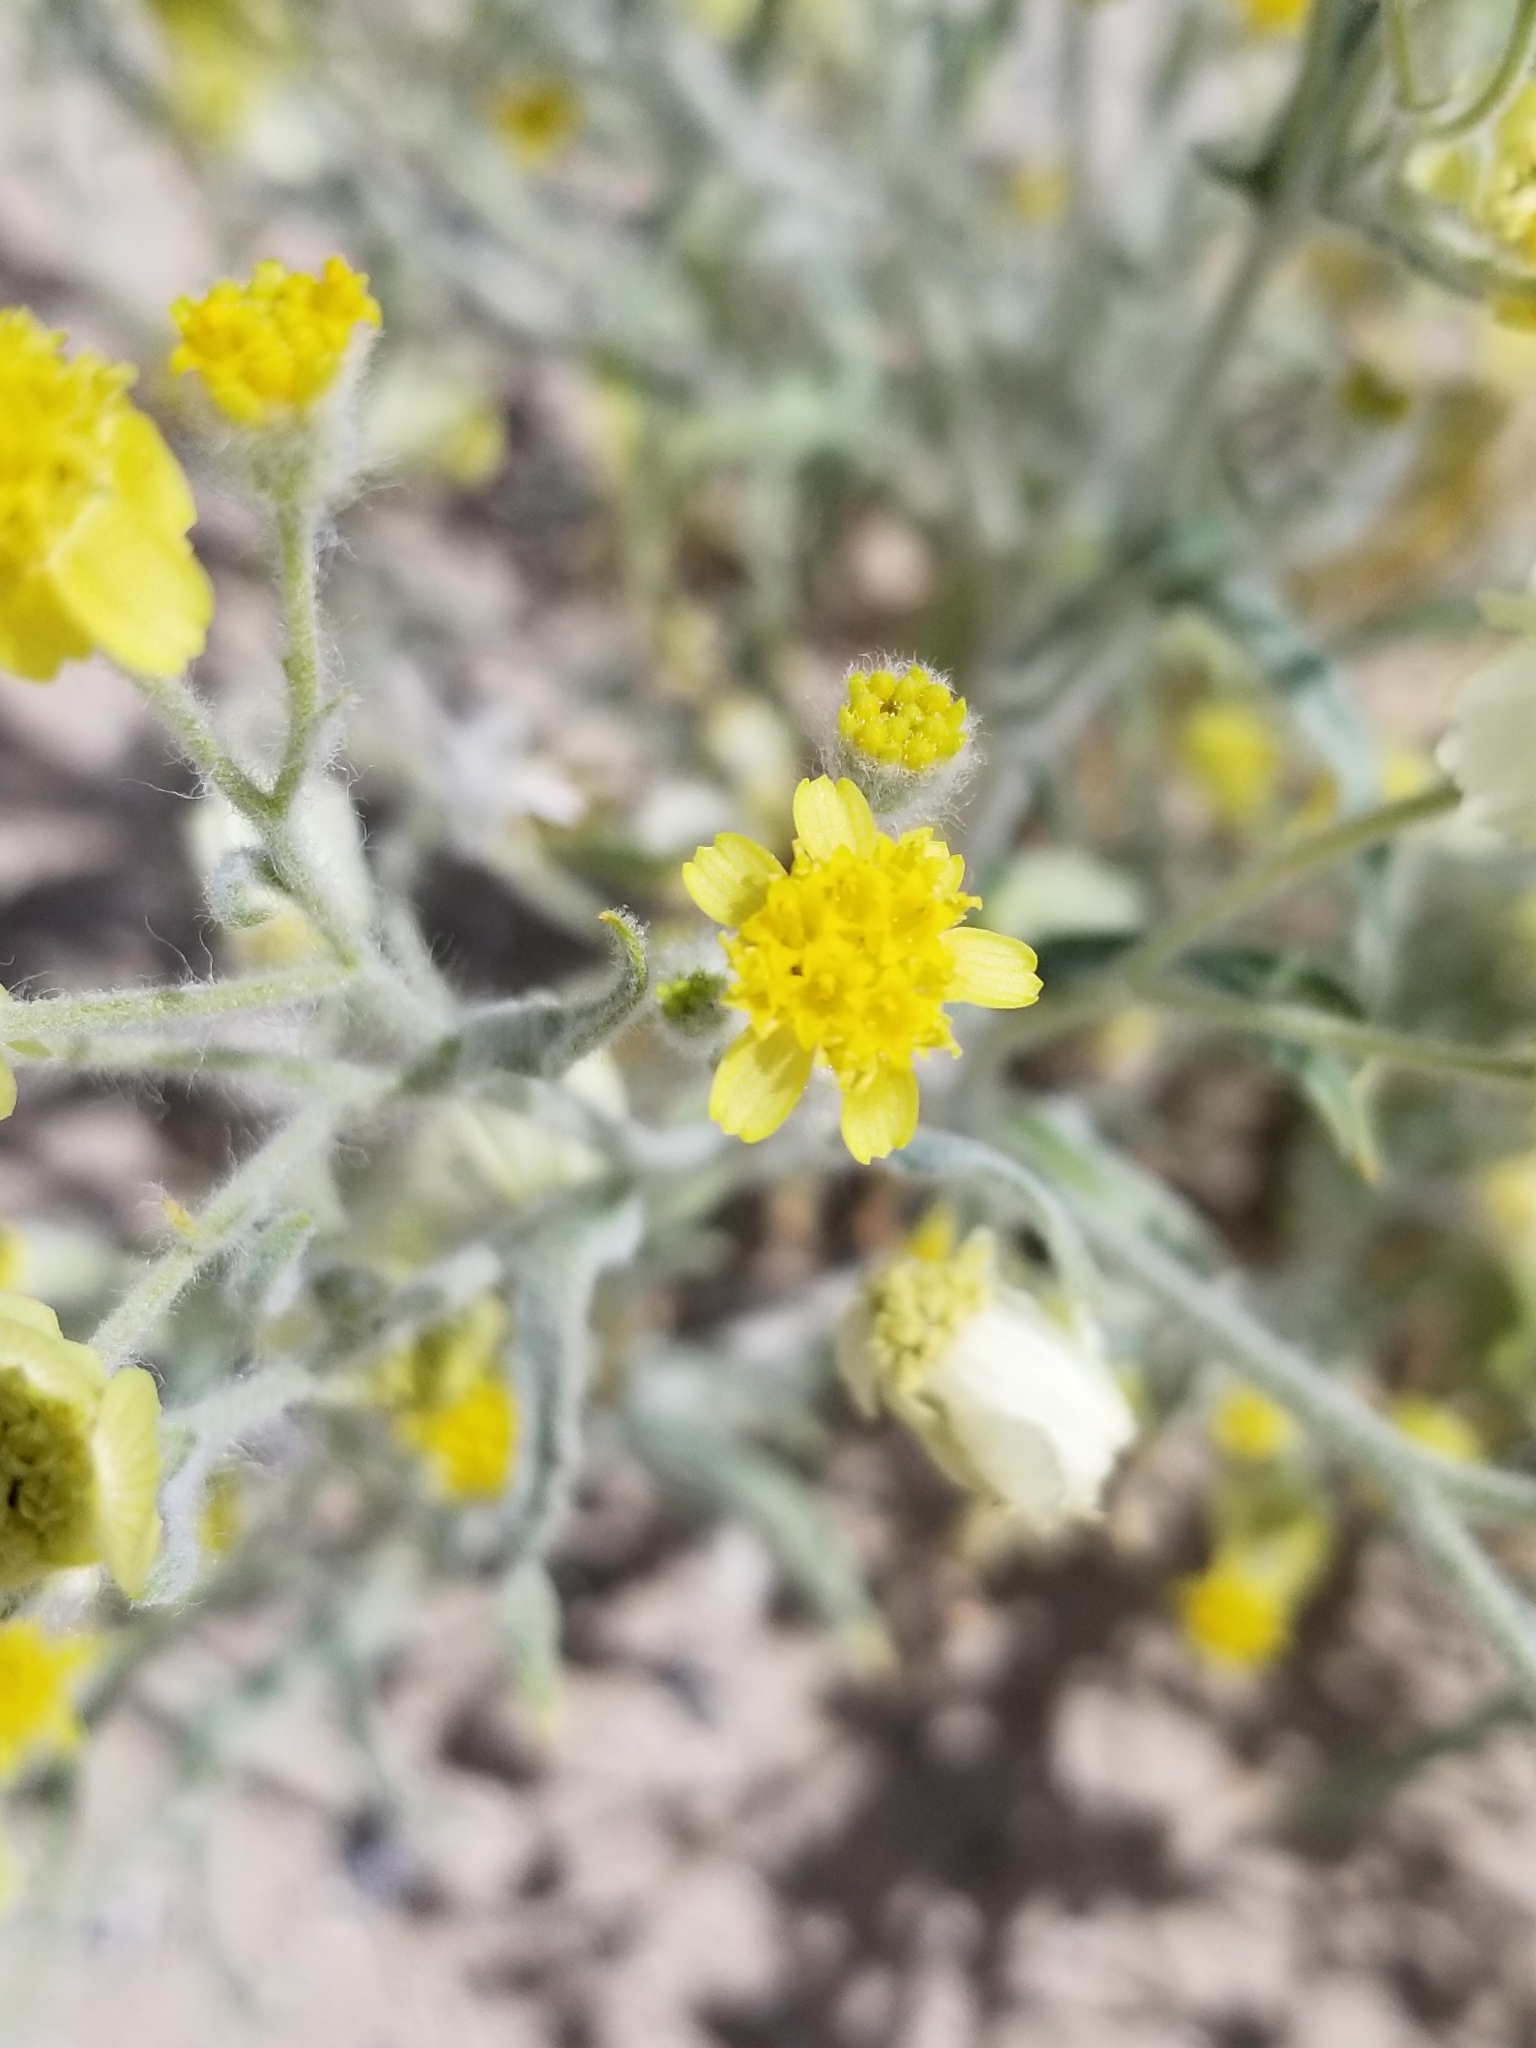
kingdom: Plantae
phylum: Tracheophyta
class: Magnoliopsida
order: Asterales
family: Asteraceae
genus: Baileya
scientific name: Baileya pauciradiata
